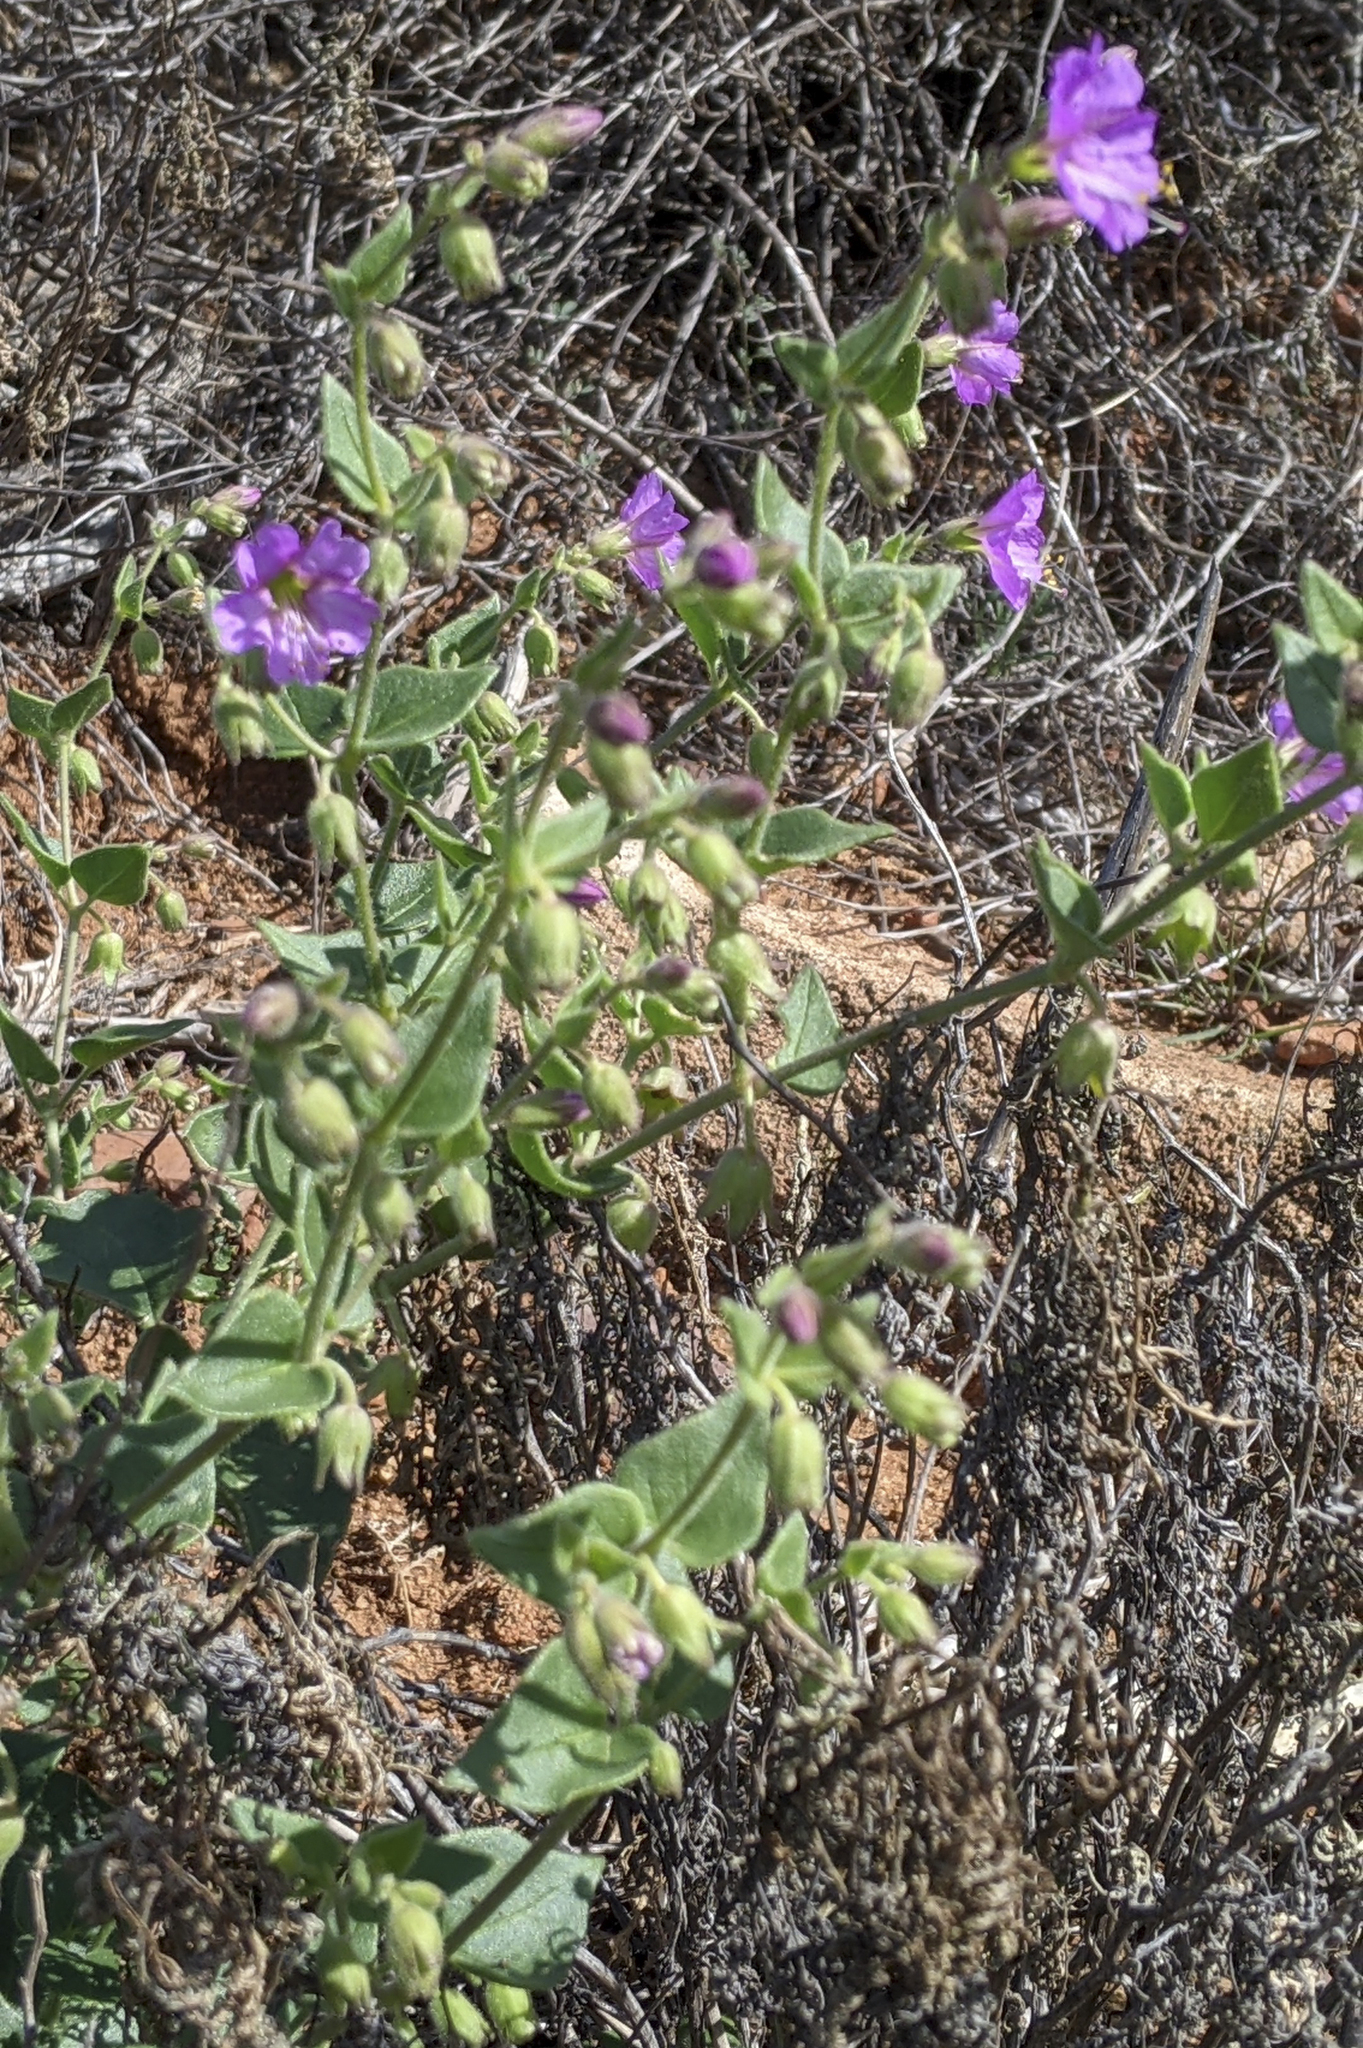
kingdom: Plantae
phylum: Tracheophyta
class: Magnoliopsida
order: Caryophyllales
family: Nyctaginaceae
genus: Mirabilis
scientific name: Mirabilis laevis
